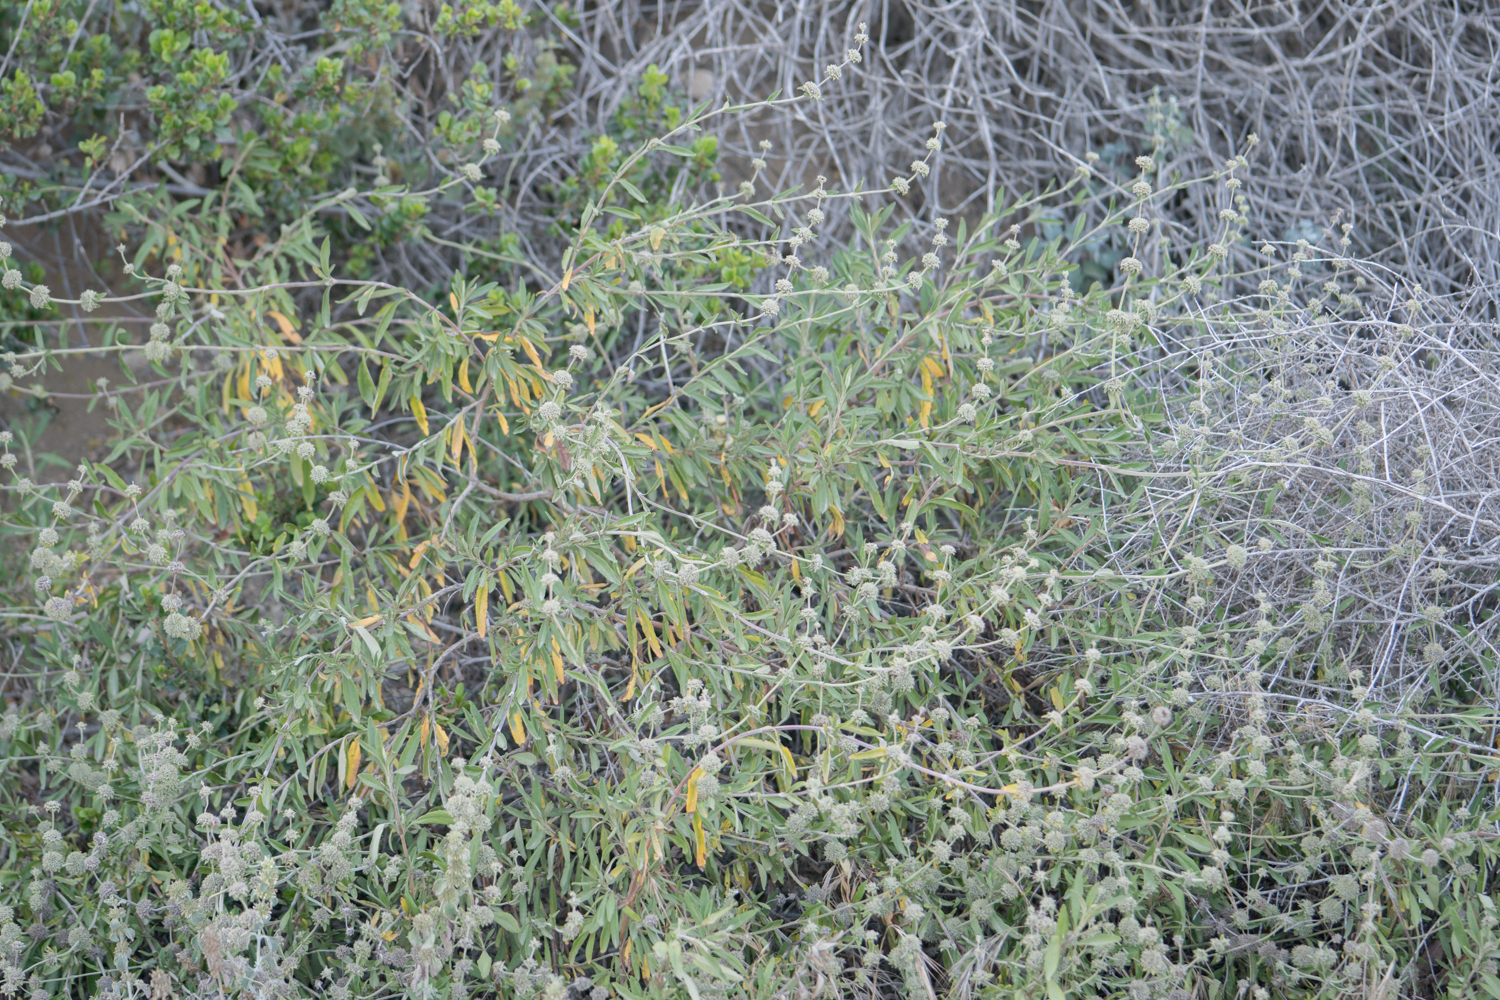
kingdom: Plantae
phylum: Tracheophyta
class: Magnoliopsida
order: Lamiales
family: Lamiaceae
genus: Salvia
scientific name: Salvia mellifera
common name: Black sage
